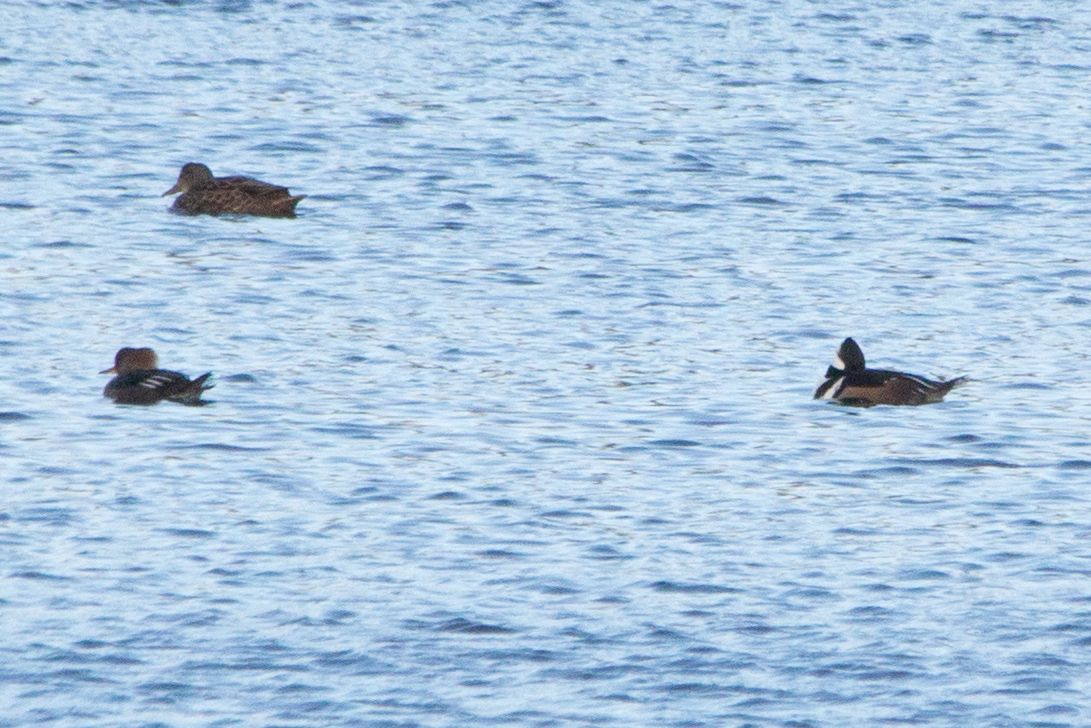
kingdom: Animalia
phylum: Chordata
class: Aves
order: Anseriformes
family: Anatidae
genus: Lophodytes
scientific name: Lophodytes cucullatus
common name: Hooded merganser
